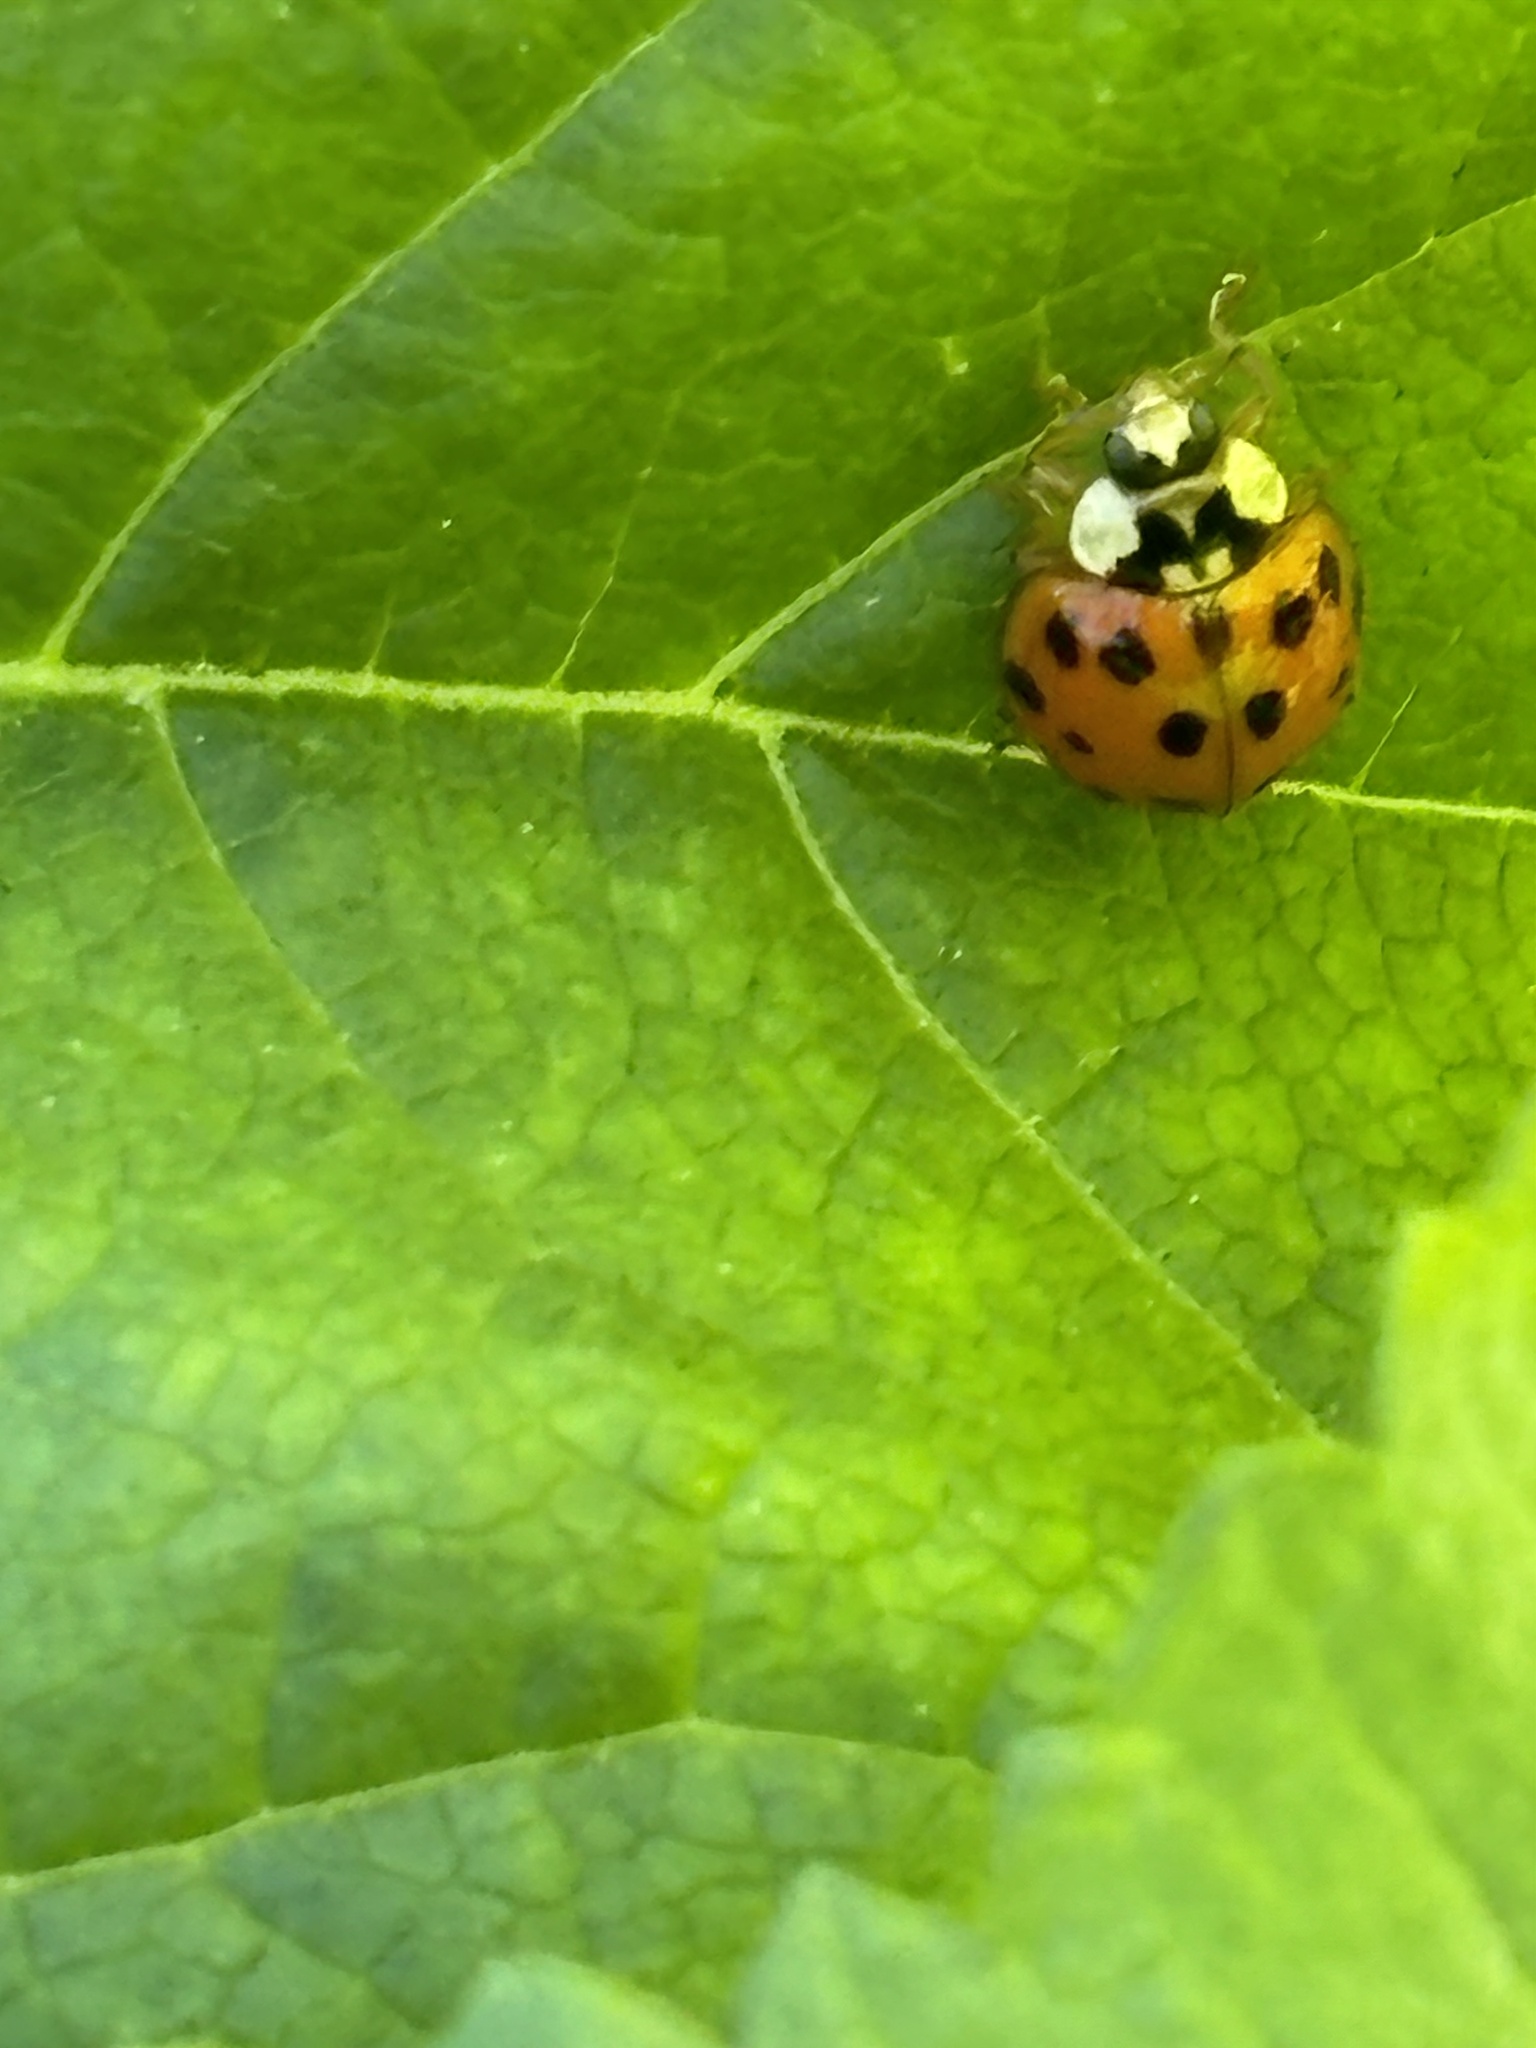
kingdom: Animalia
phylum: Arthropoda
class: Insecta
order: Coleoptera
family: Coccinellidae
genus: Harmonia
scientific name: Harmonia axyridis
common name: Harlequin ladybird
